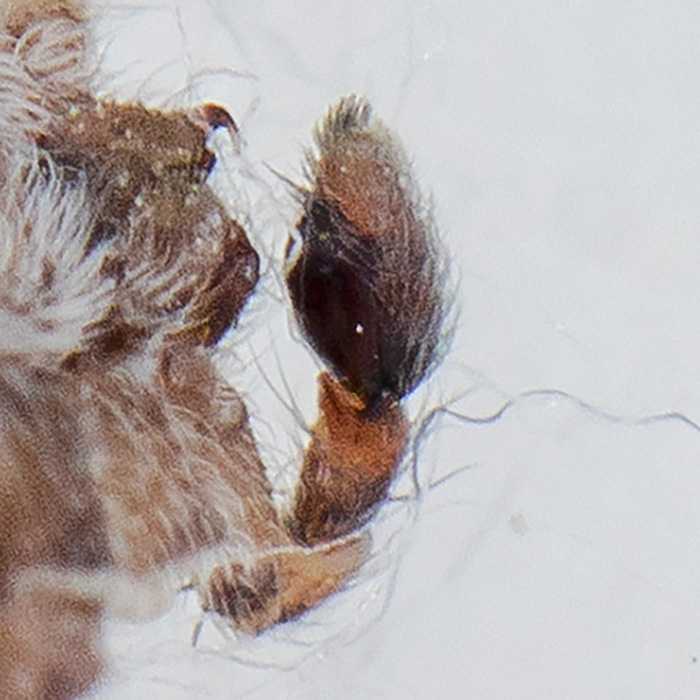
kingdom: Animalia
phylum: Arthropoda
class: Arachnida
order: Araneae
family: Philodromidae
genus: Rhysodromus
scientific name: Rhysodromus pictus
